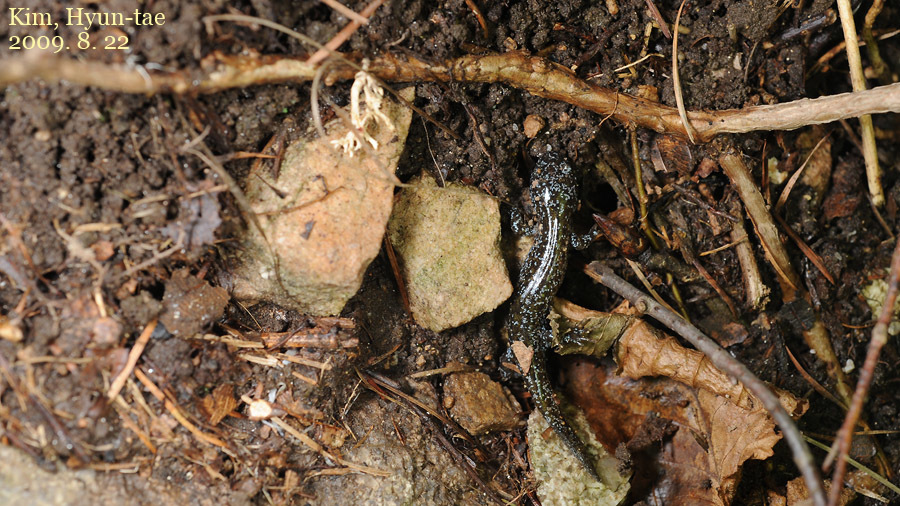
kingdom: Animalia
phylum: Chordata
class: Amphibia
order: Caudata
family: Hynobiidae
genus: Hynobius
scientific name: Hynobius leechii
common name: Gensan salamander
